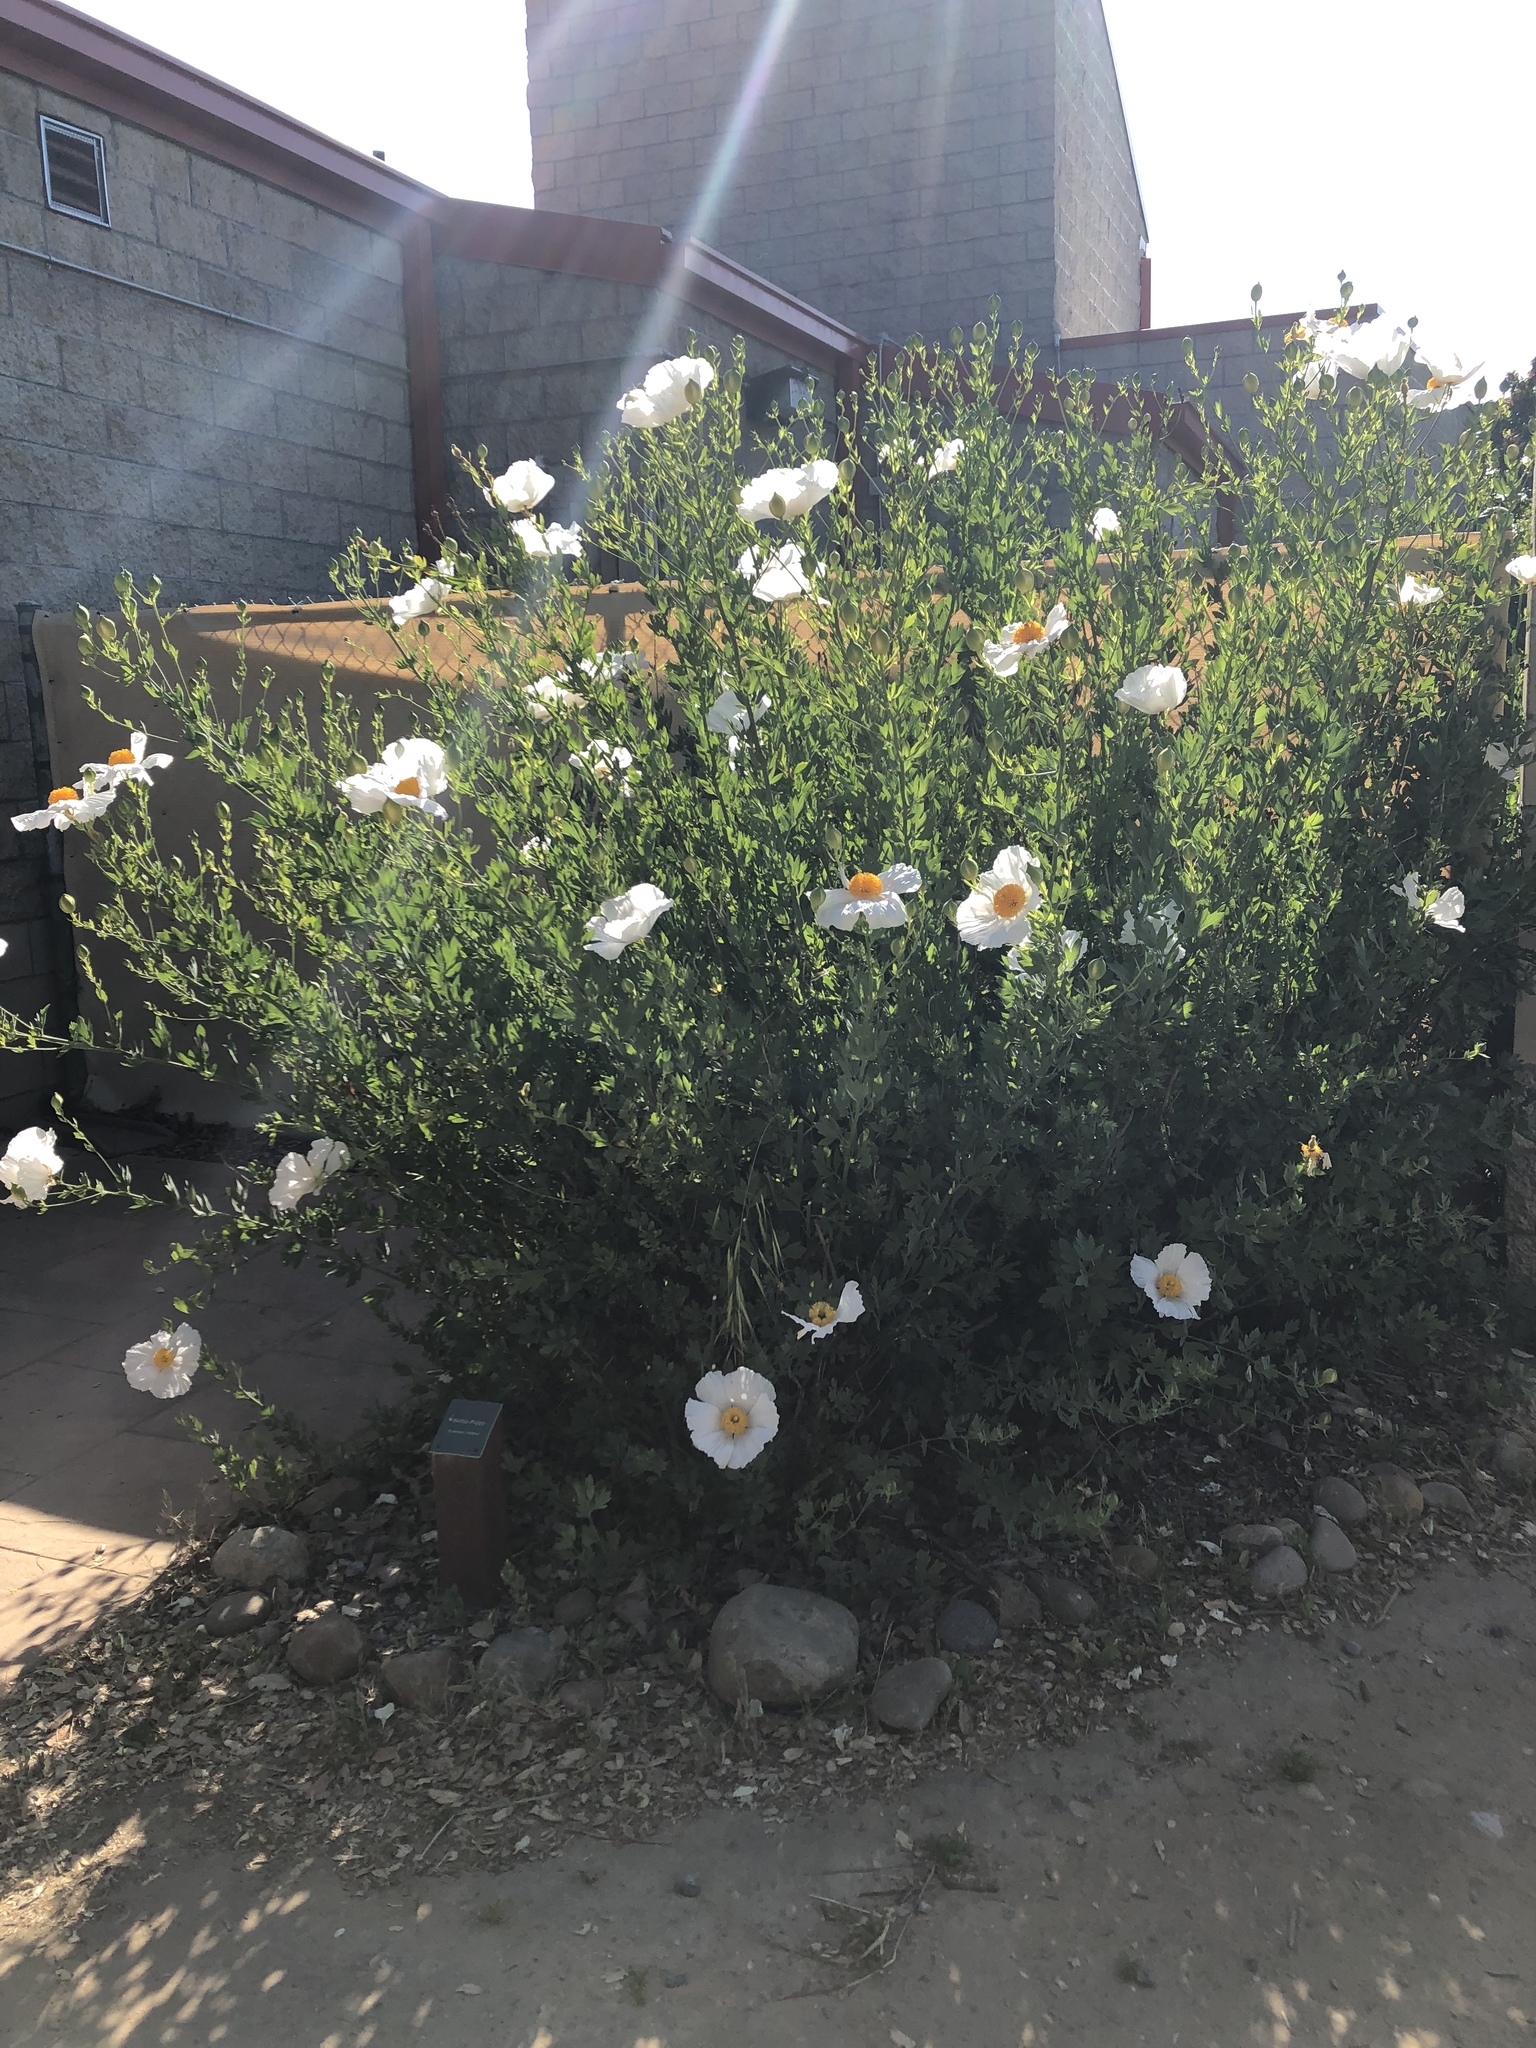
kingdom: Plantae
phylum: Tracheophyta
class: Magnoliopsida
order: Ranunculales
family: Papaveraceae
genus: Romneya
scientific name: Romneya coulteri
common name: California tree-poppy
